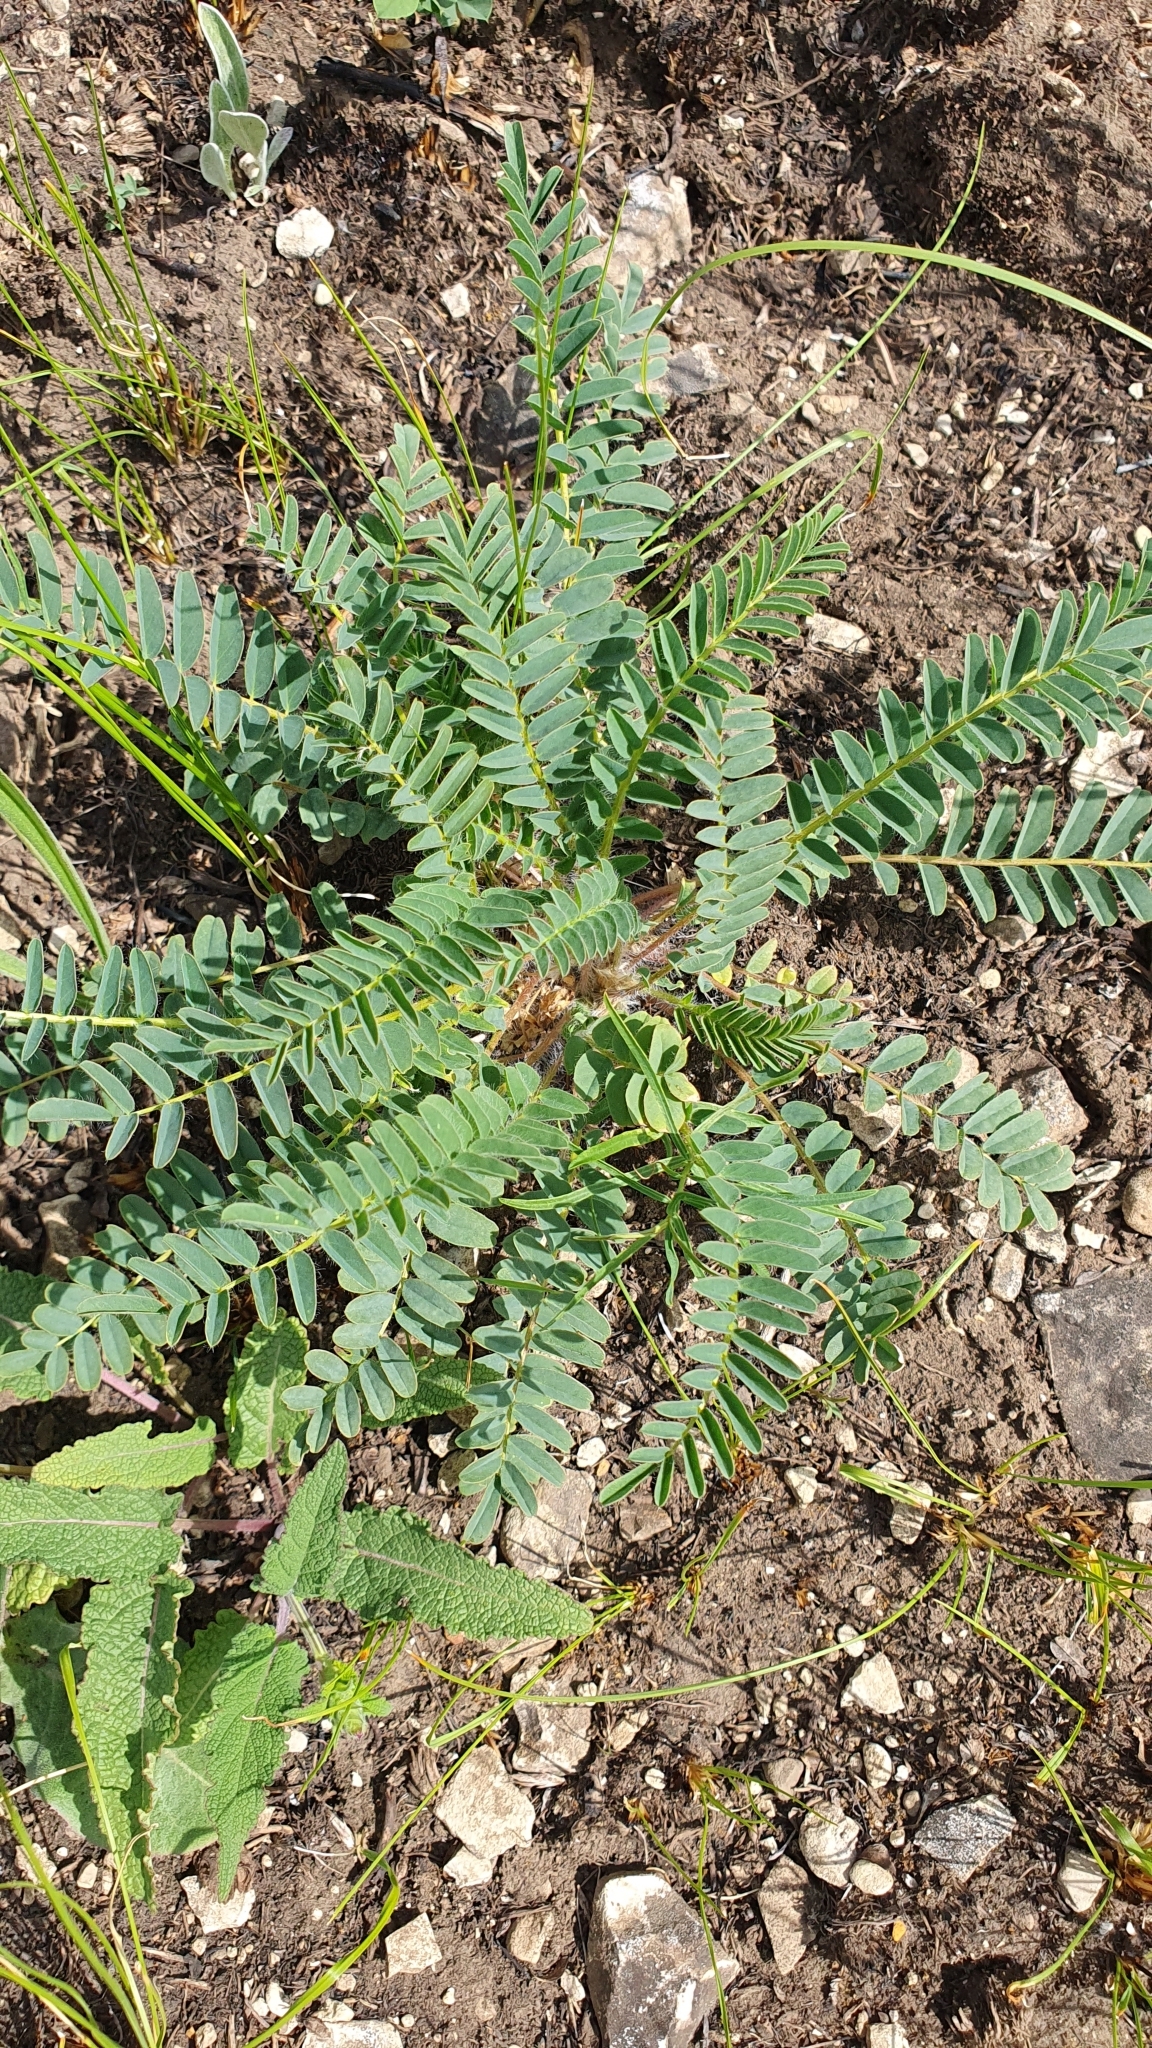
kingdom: Plantae
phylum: Tracheophyta
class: Magnoliopsida
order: Fabales
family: Fabaceae
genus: Astragalus
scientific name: Astragalus wolgensis
